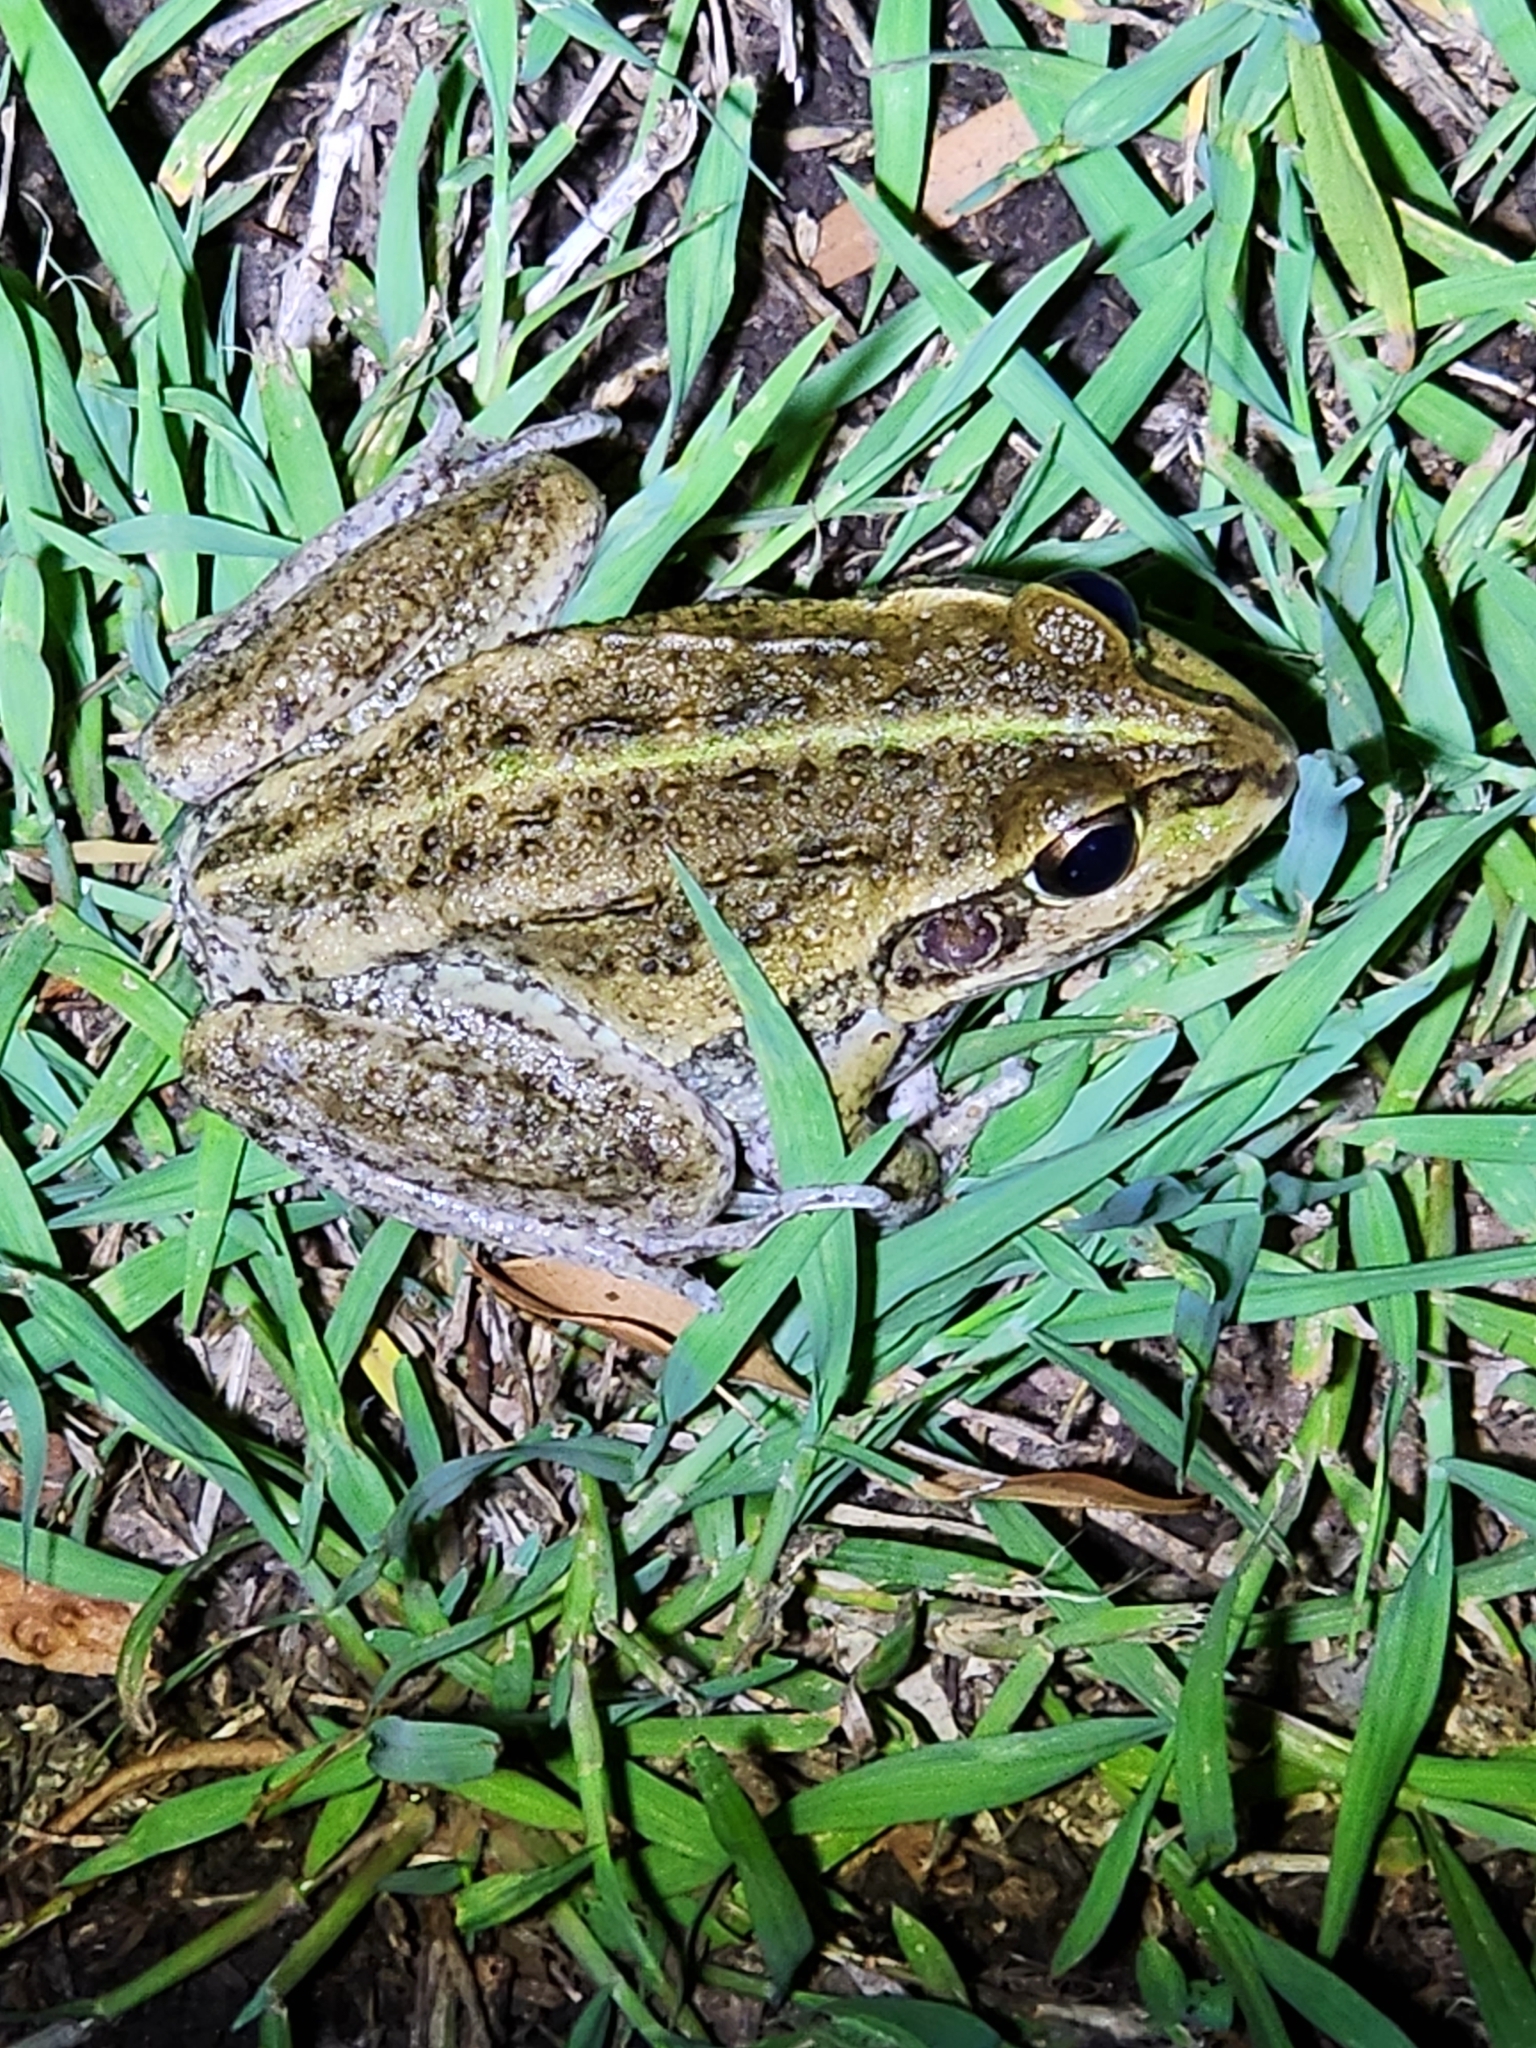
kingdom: Animalia
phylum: Chordata
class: Amphibia
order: Anura
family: Pelodryadidae
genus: Ranoidea
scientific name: Ranoidea alboguttata
